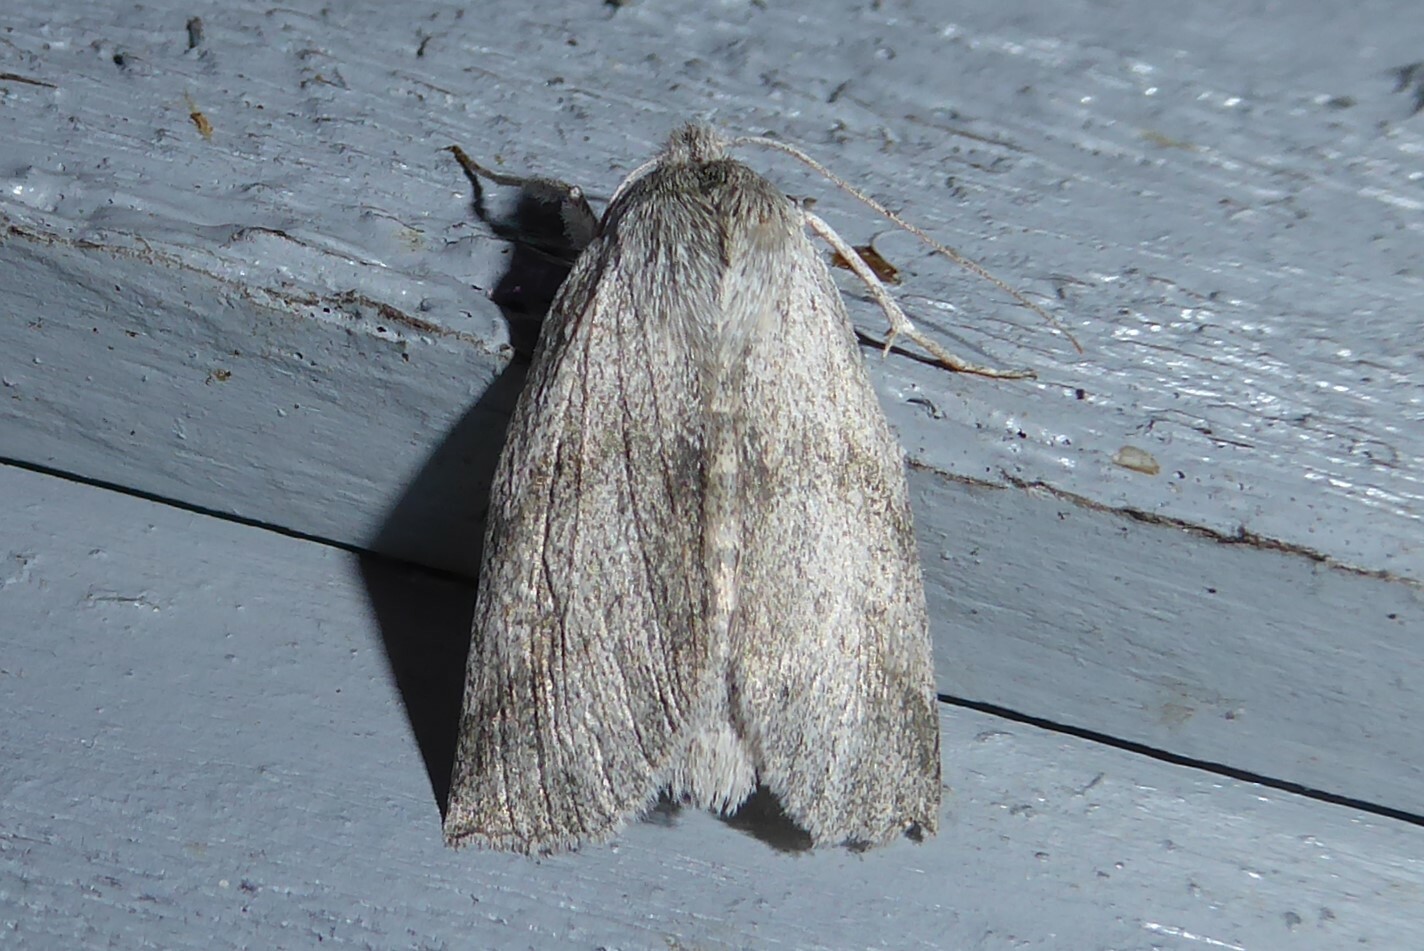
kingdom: Animalia
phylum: Arthropoda
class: Insecta
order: Lepidoptera
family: Geometridae
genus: Declana
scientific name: Declana leptomera
